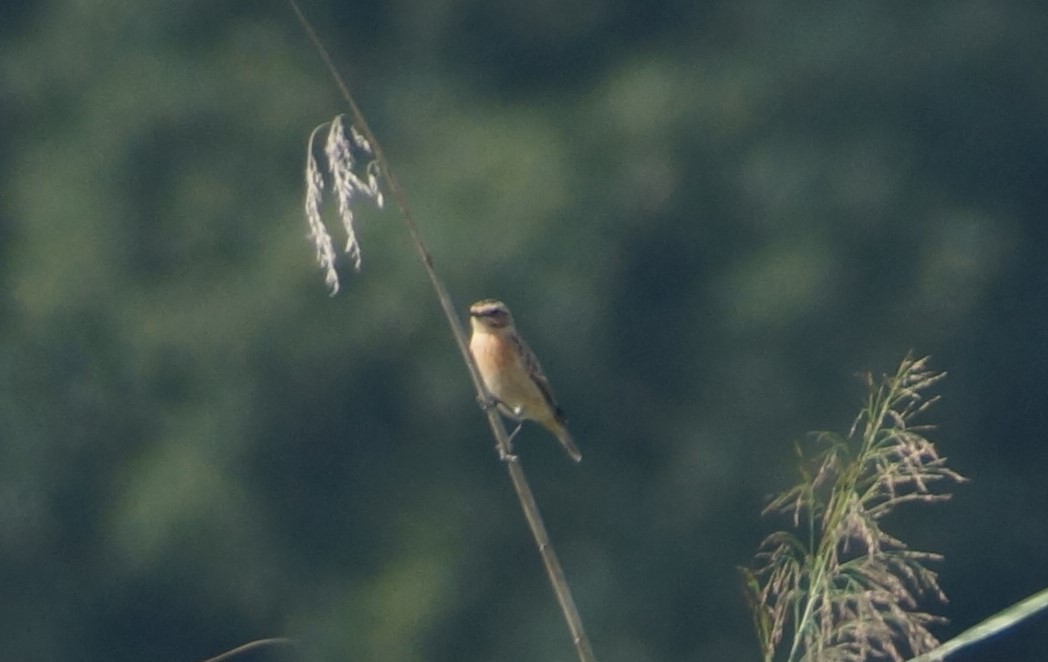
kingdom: Animalia
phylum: Chordata
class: Aves
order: Passeriformes
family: Muscicapidae
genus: Saxicola
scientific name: Saxicola rubetra
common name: Whinchat
